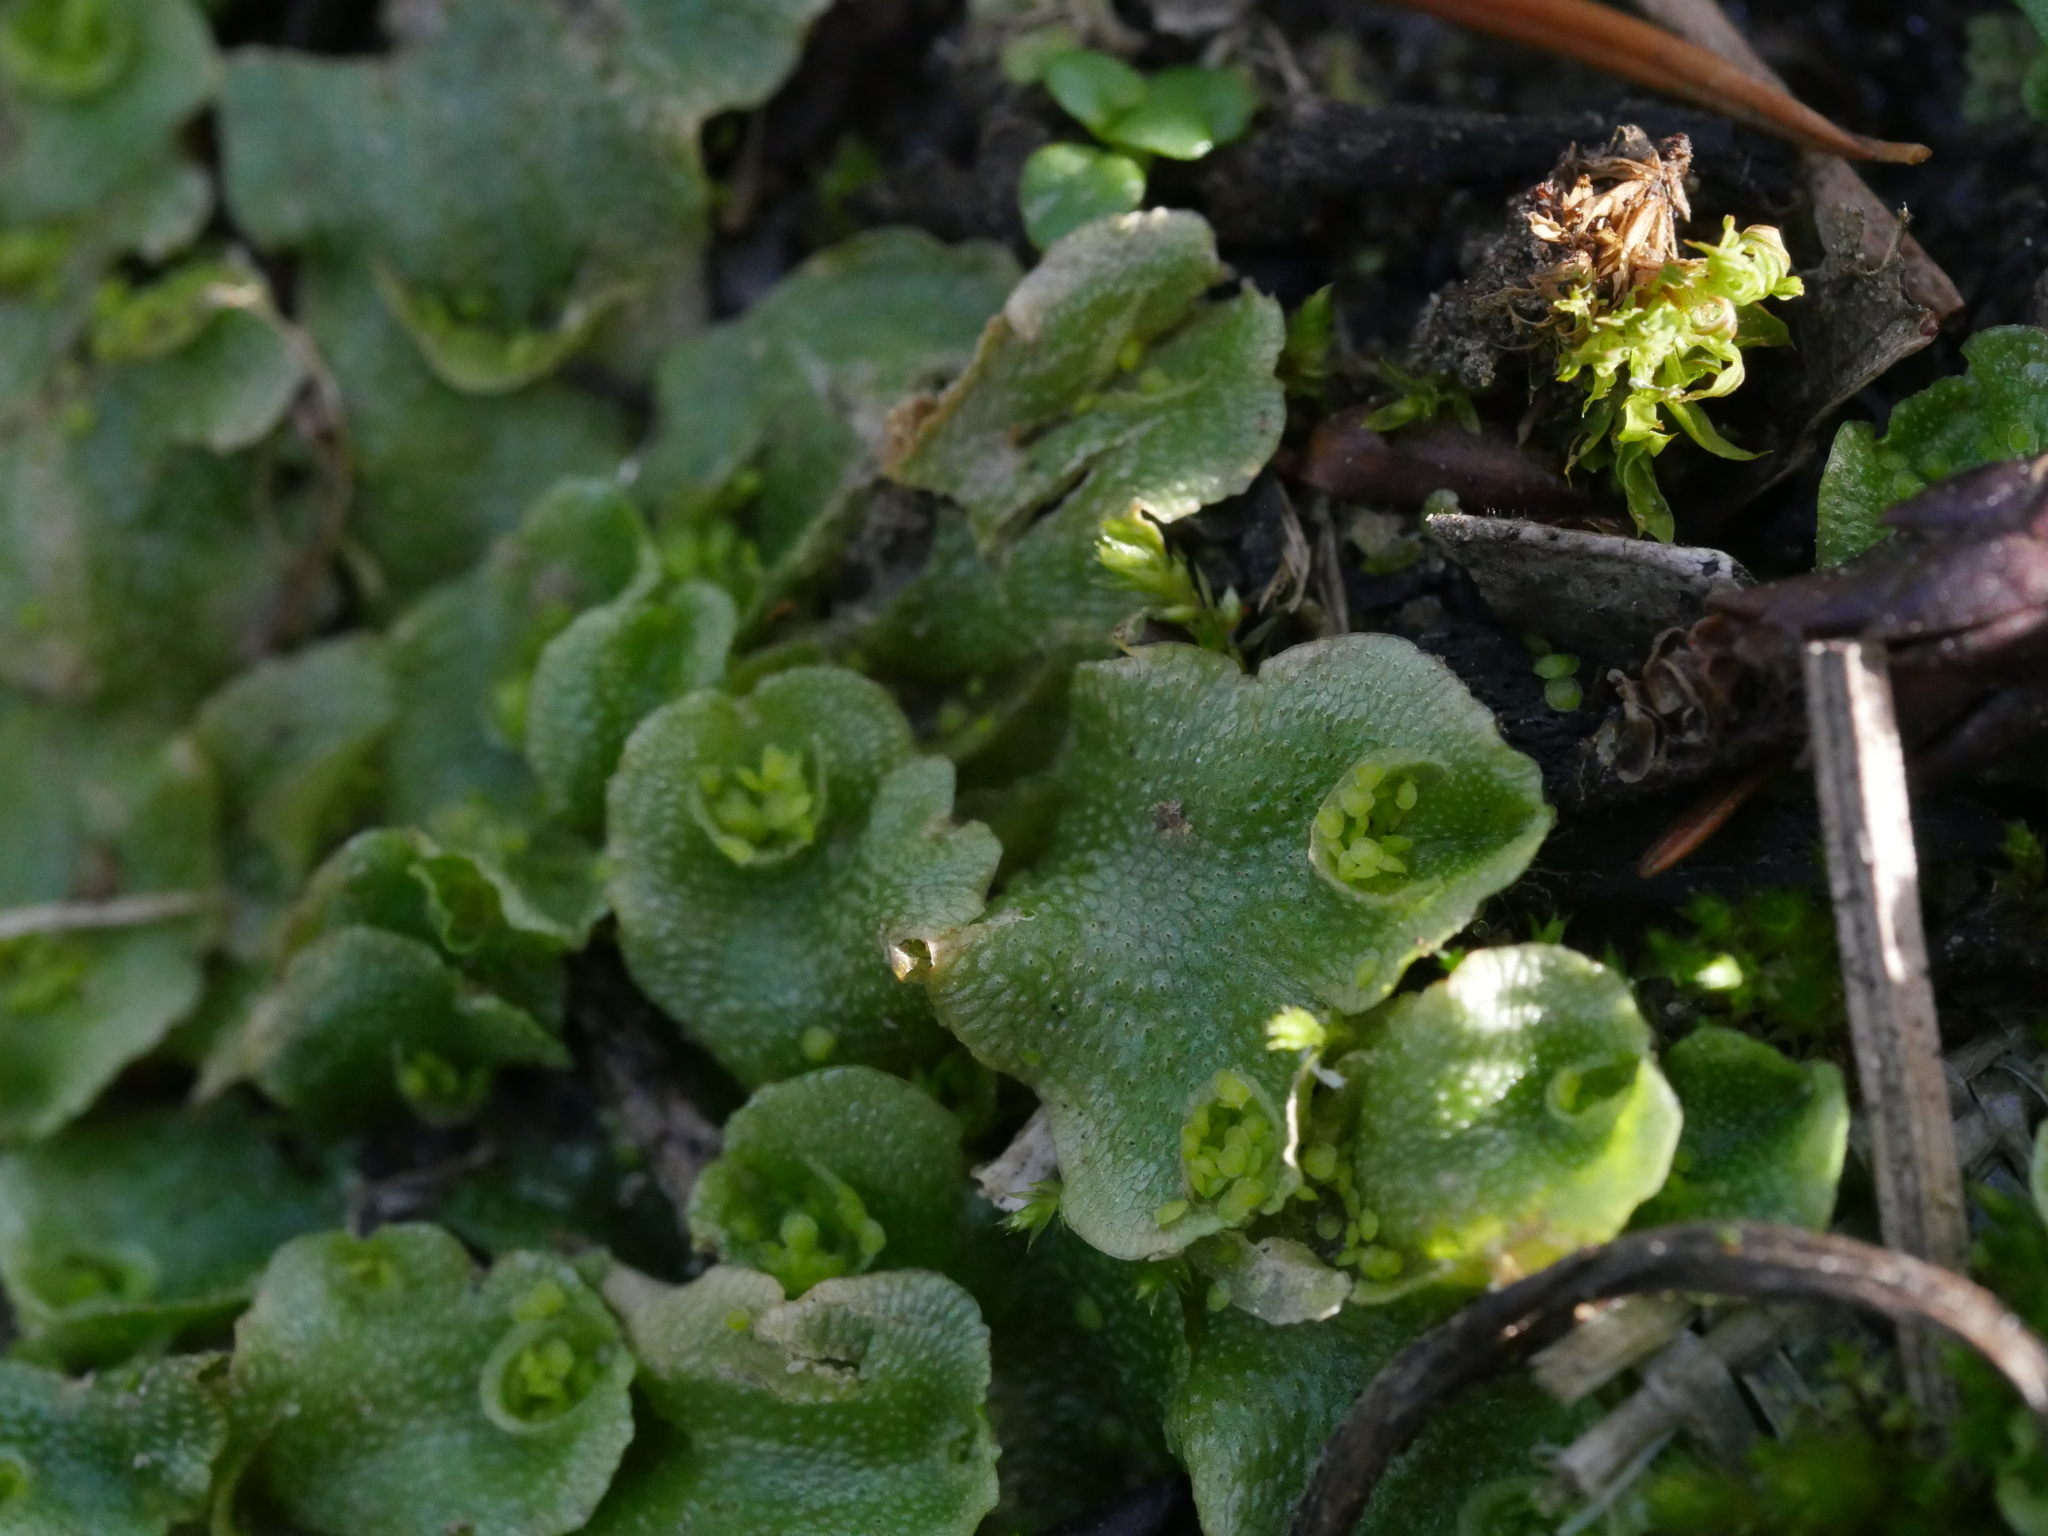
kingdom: Plantae
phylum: Marchantiophyta
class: Marchantiopsida
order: Lunulariales
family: Lunulariaceae
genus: Lunularia
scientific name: Lunularia cruciata
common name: Crescent-cup liverwort
